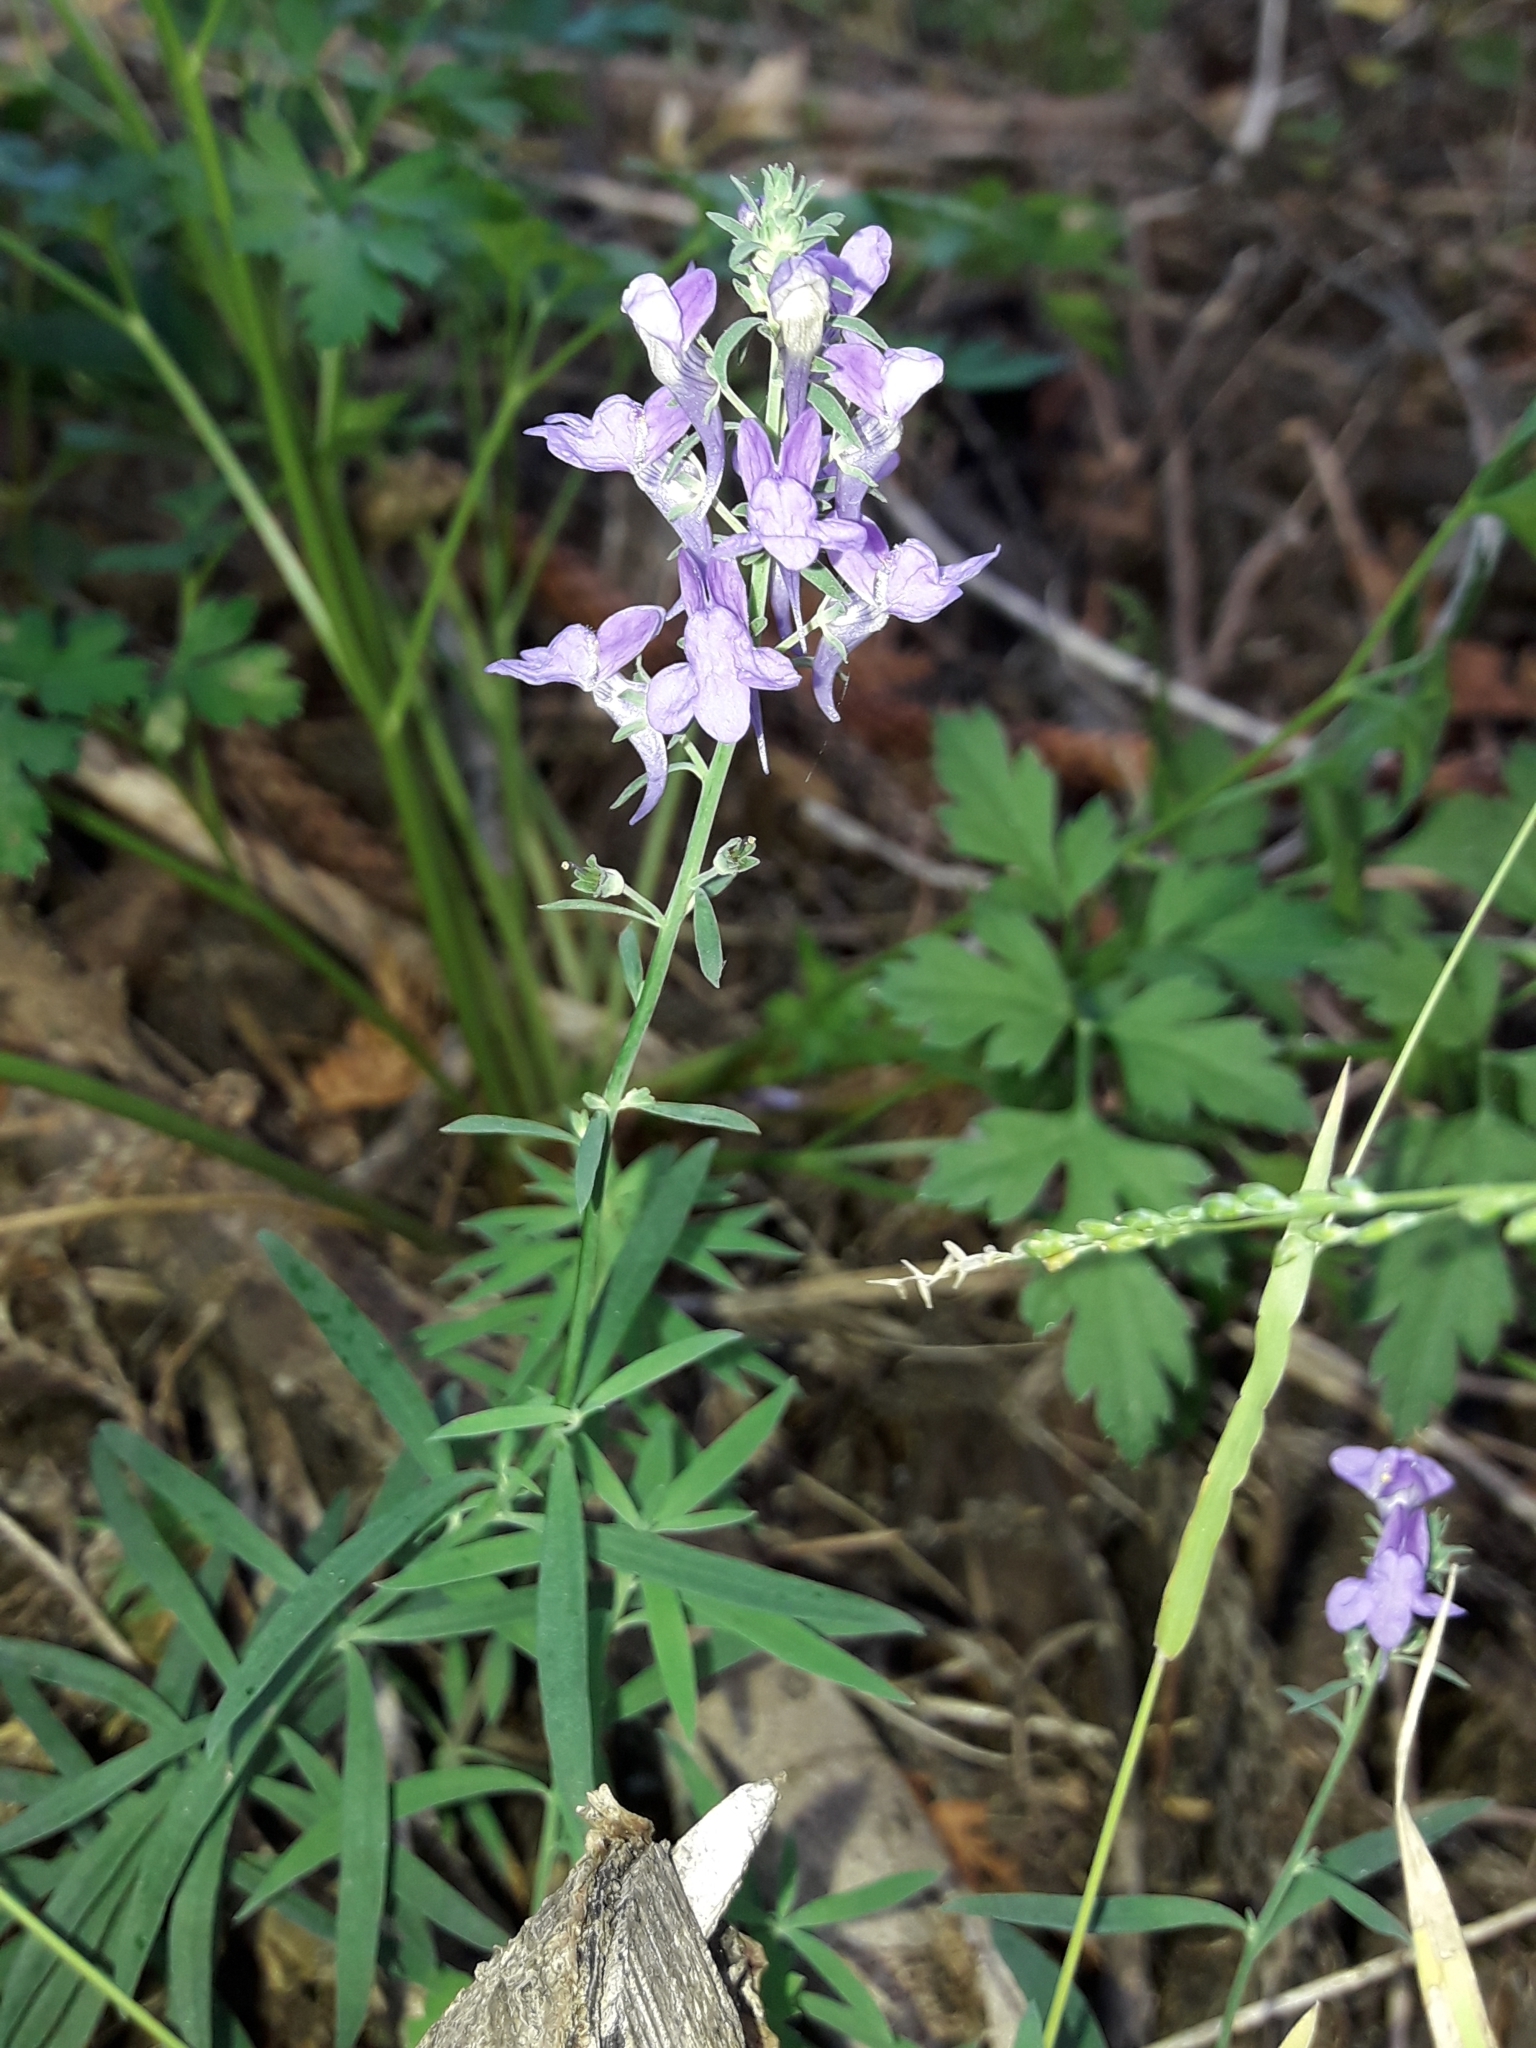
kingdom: Plantae
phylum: Tracheophyta
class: Magnoliopsida
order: Lamiales
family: Plantaginaceae
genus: Linaria
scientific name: Linaria purpurea
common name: Purple toadflax
